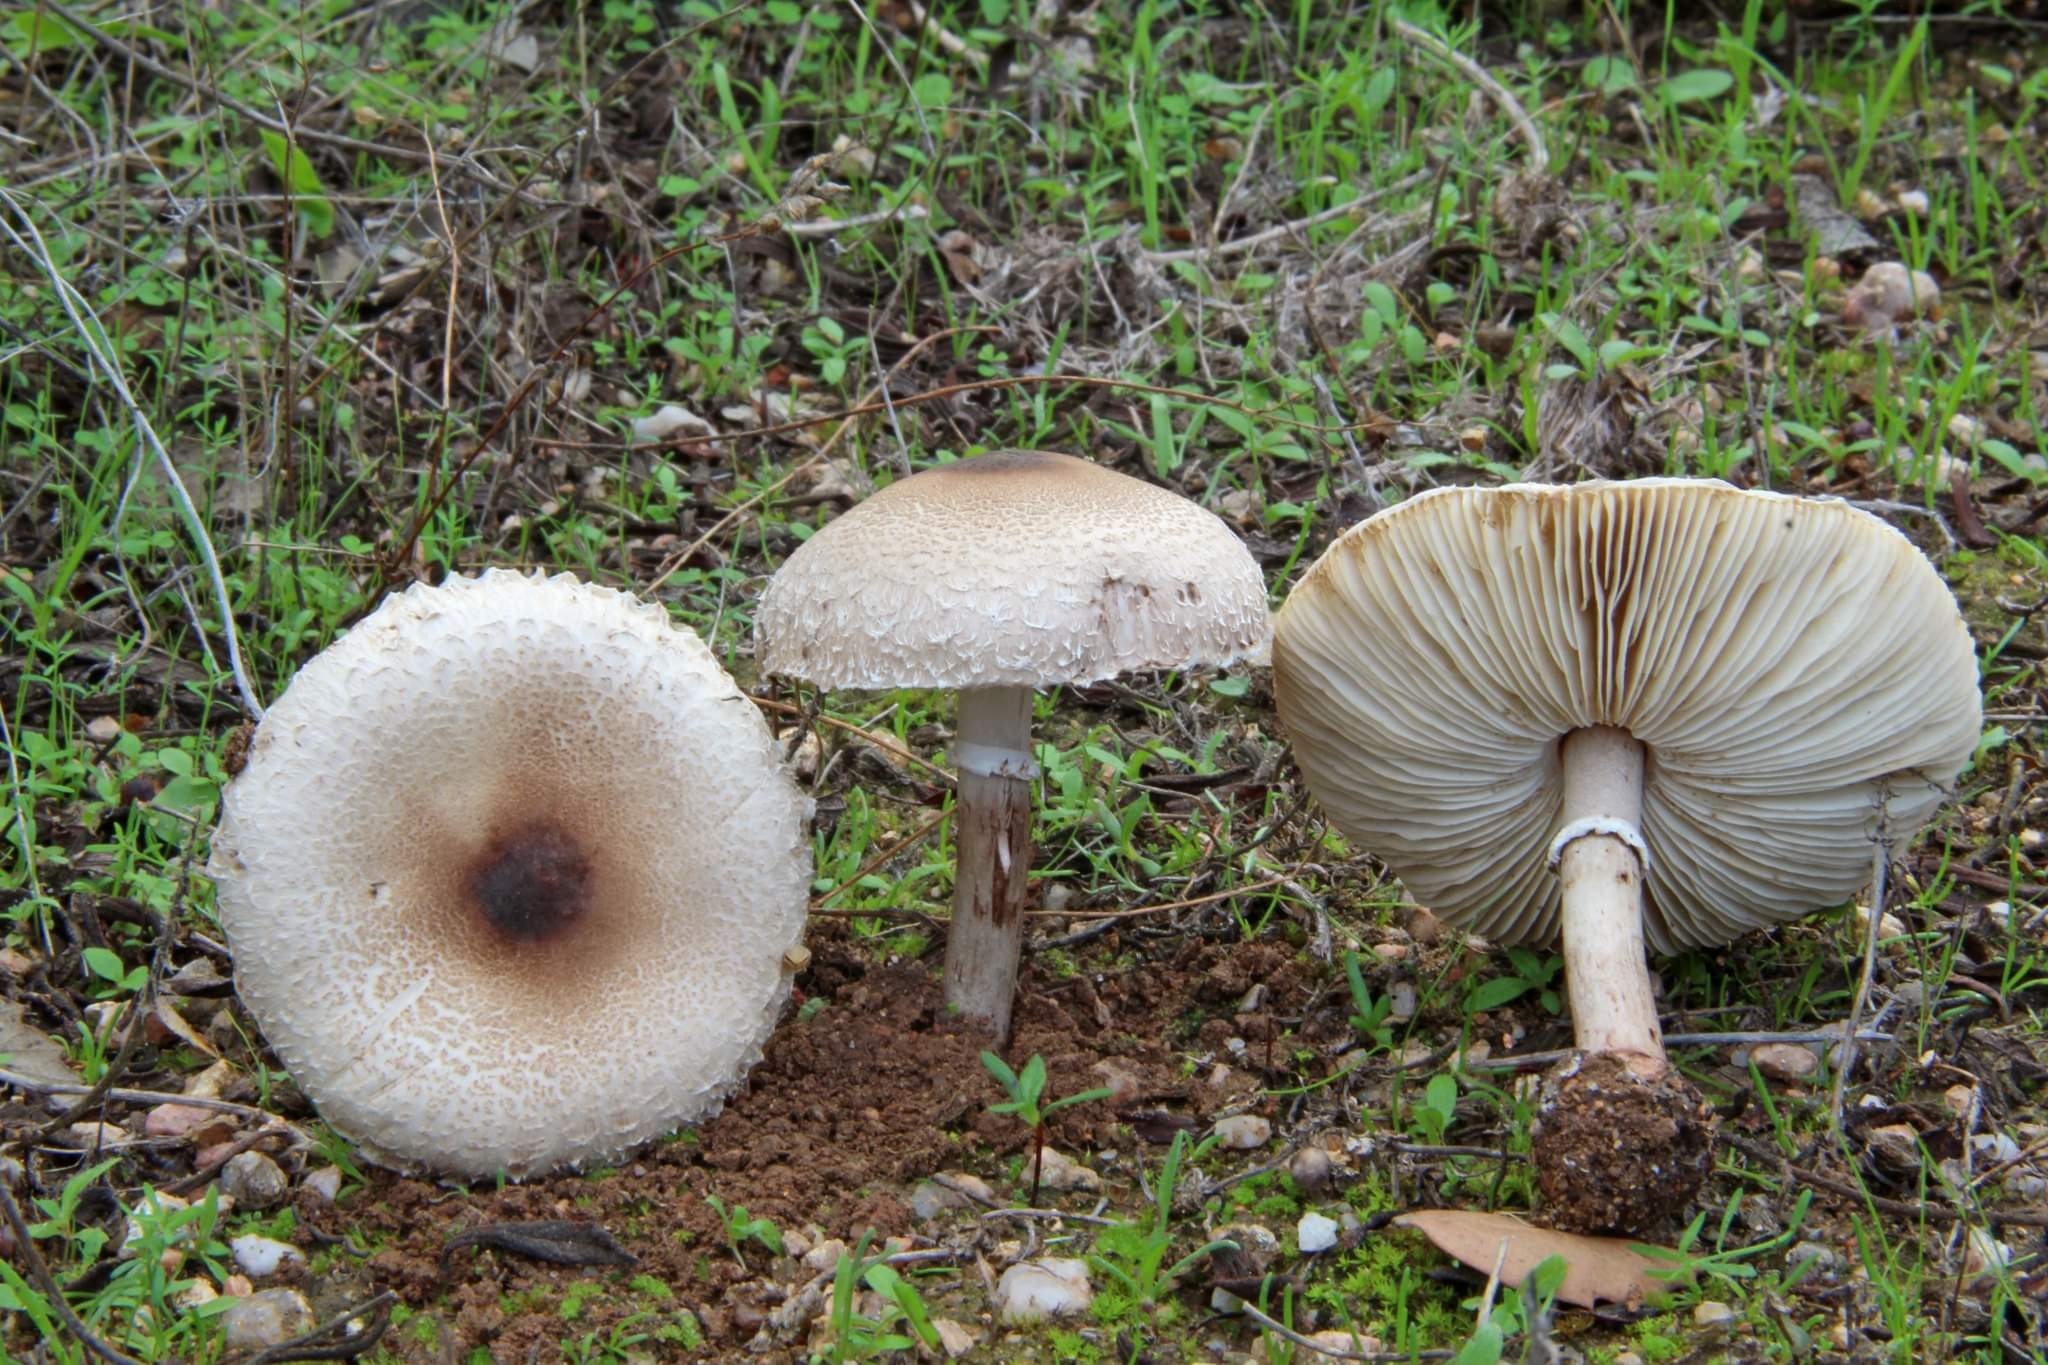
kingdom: Fungi
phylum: Basidiomycota
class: Agaricomycetes
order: Agaricales
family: Agaricaceae
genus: Lepiota
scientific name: Lepiota phaeodisca
